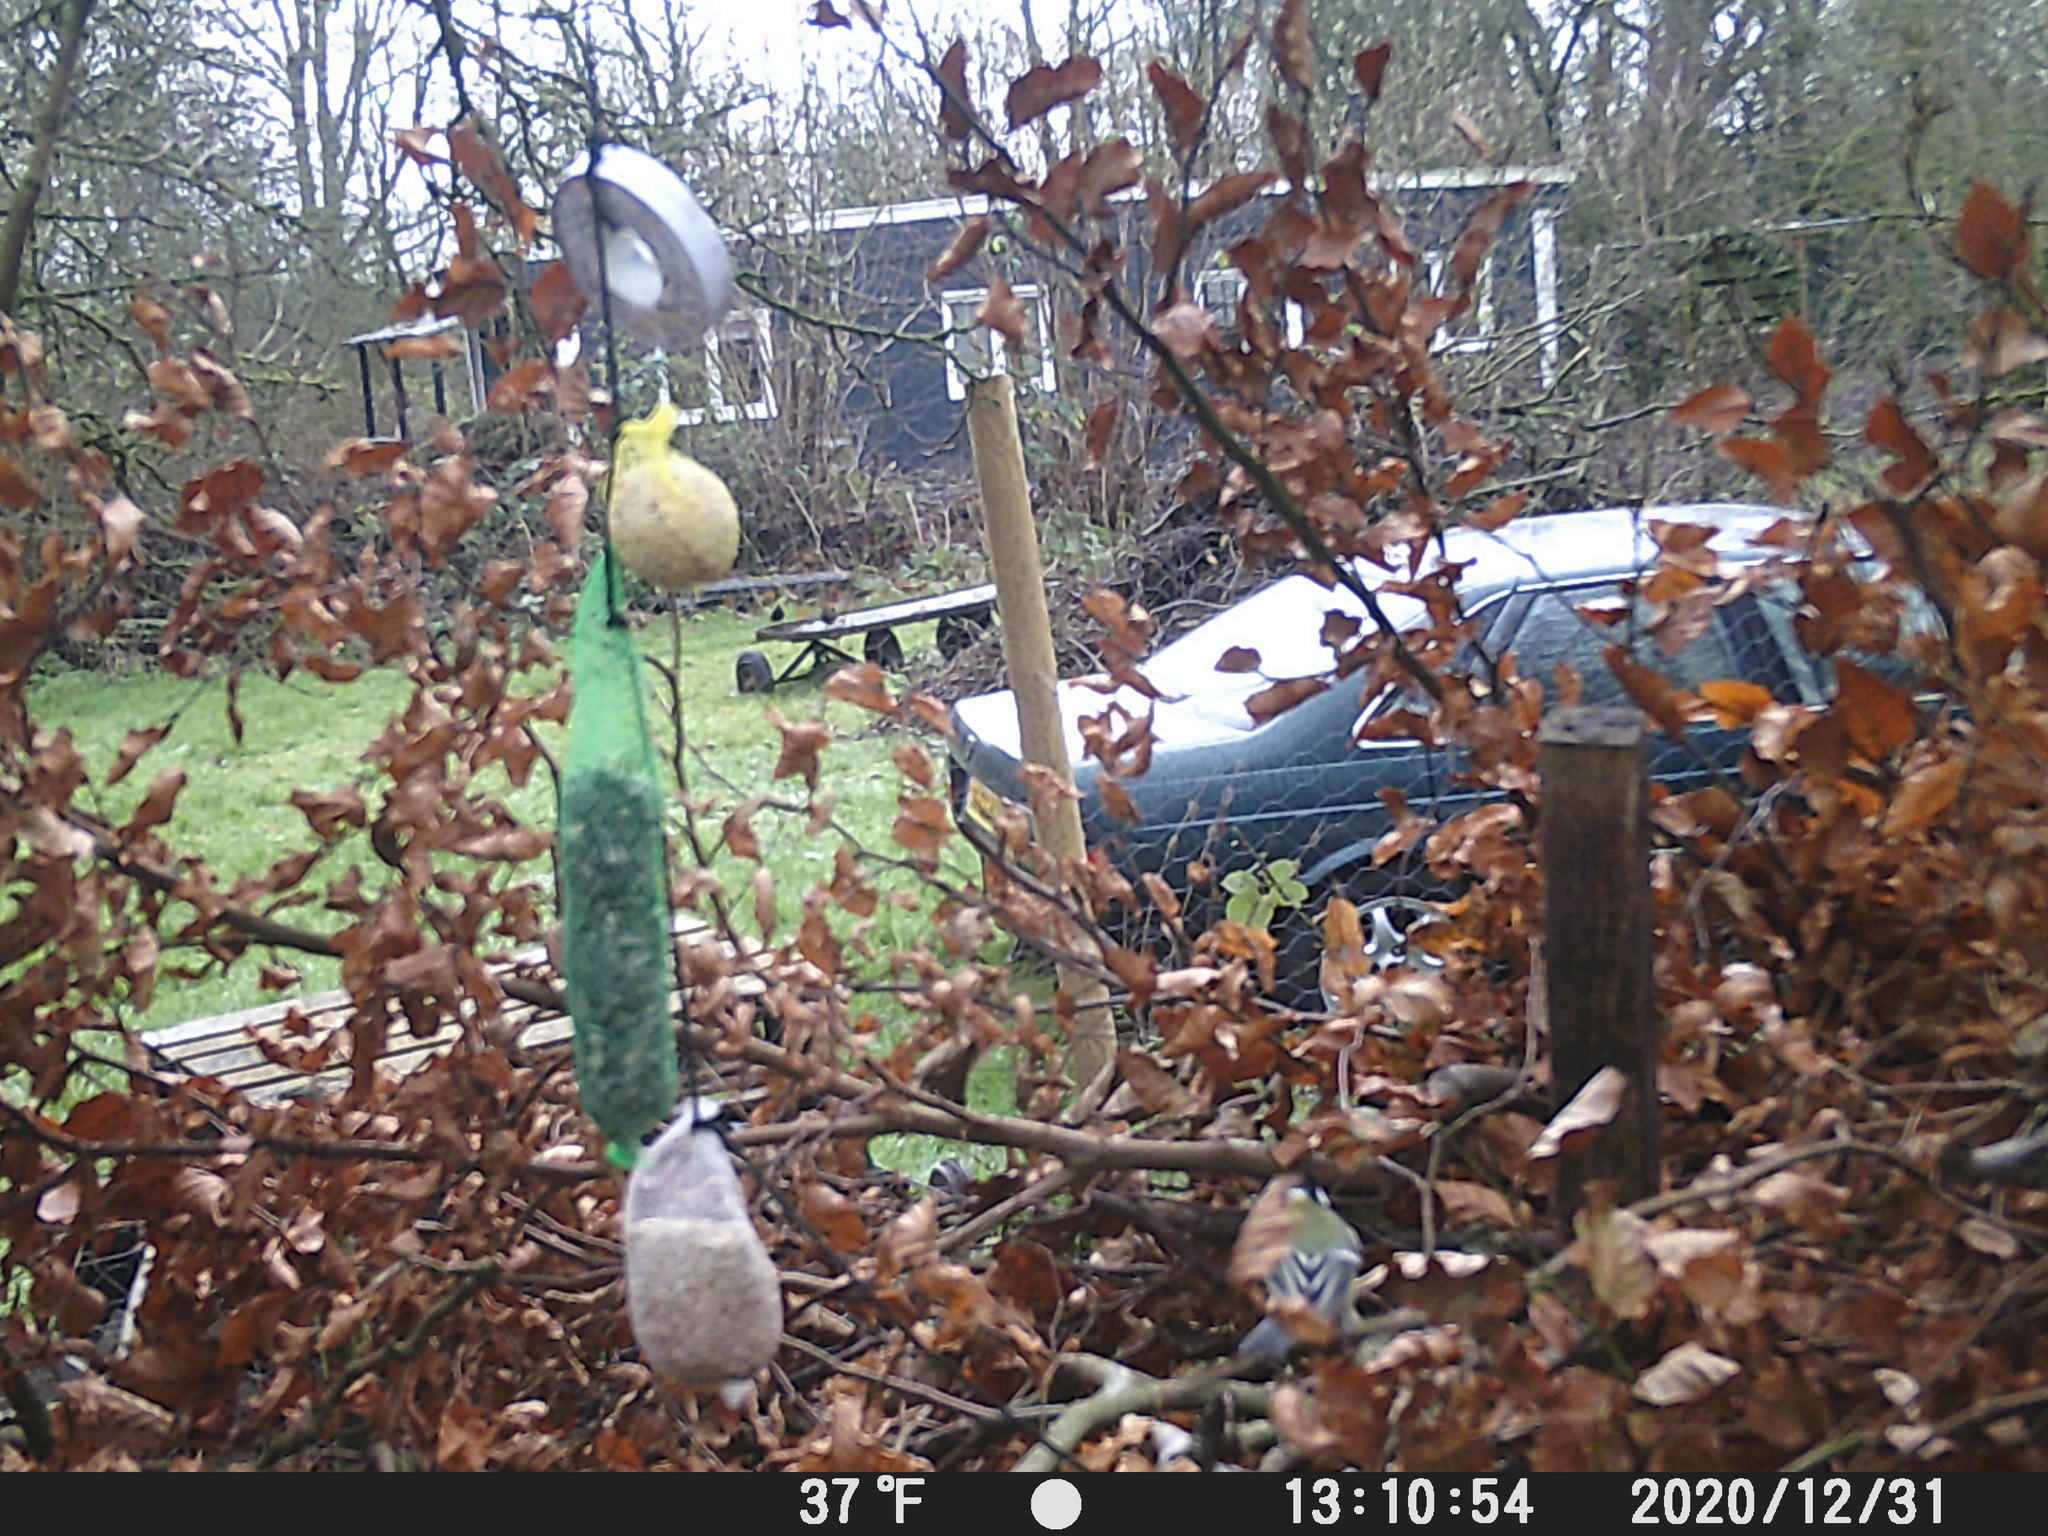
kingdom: Animalia
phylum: Chordata
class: Aves
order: Passeriformes
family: Paridae
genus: Parus
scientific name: Parus major
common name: Great tit
